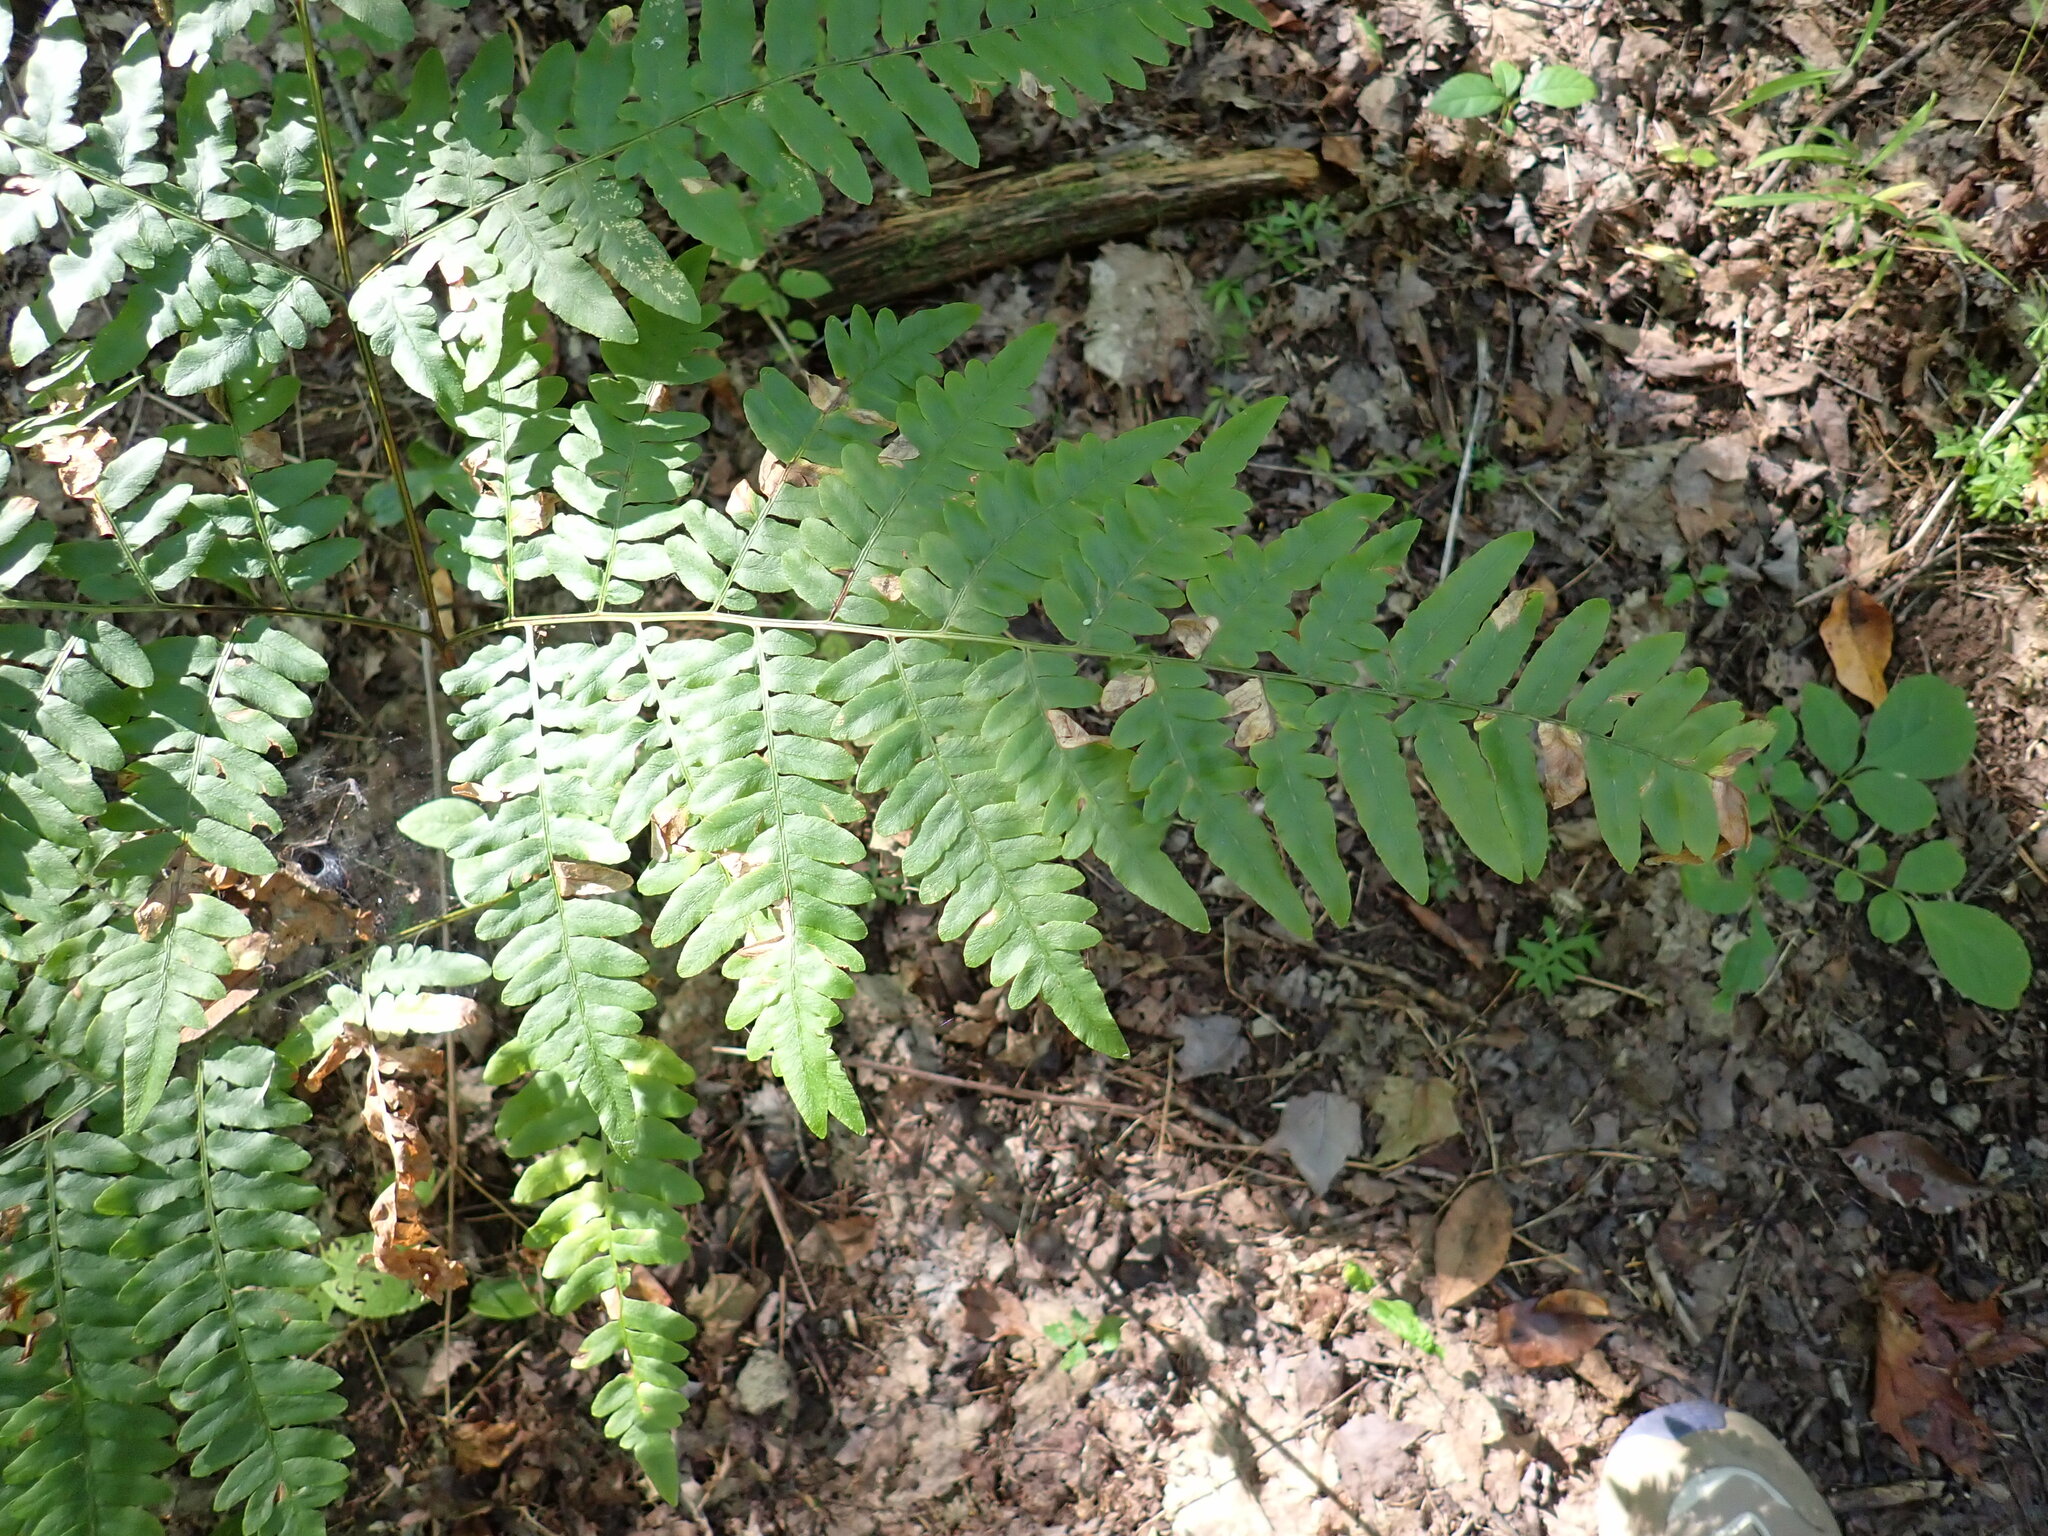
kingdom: Plantae
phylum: Tracheophyta
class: Polypodiopsida
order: Polypodiales
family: Dennstaedtiaceae
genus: Pteridium
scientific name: Pteridium aquilinum
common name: Bracken
